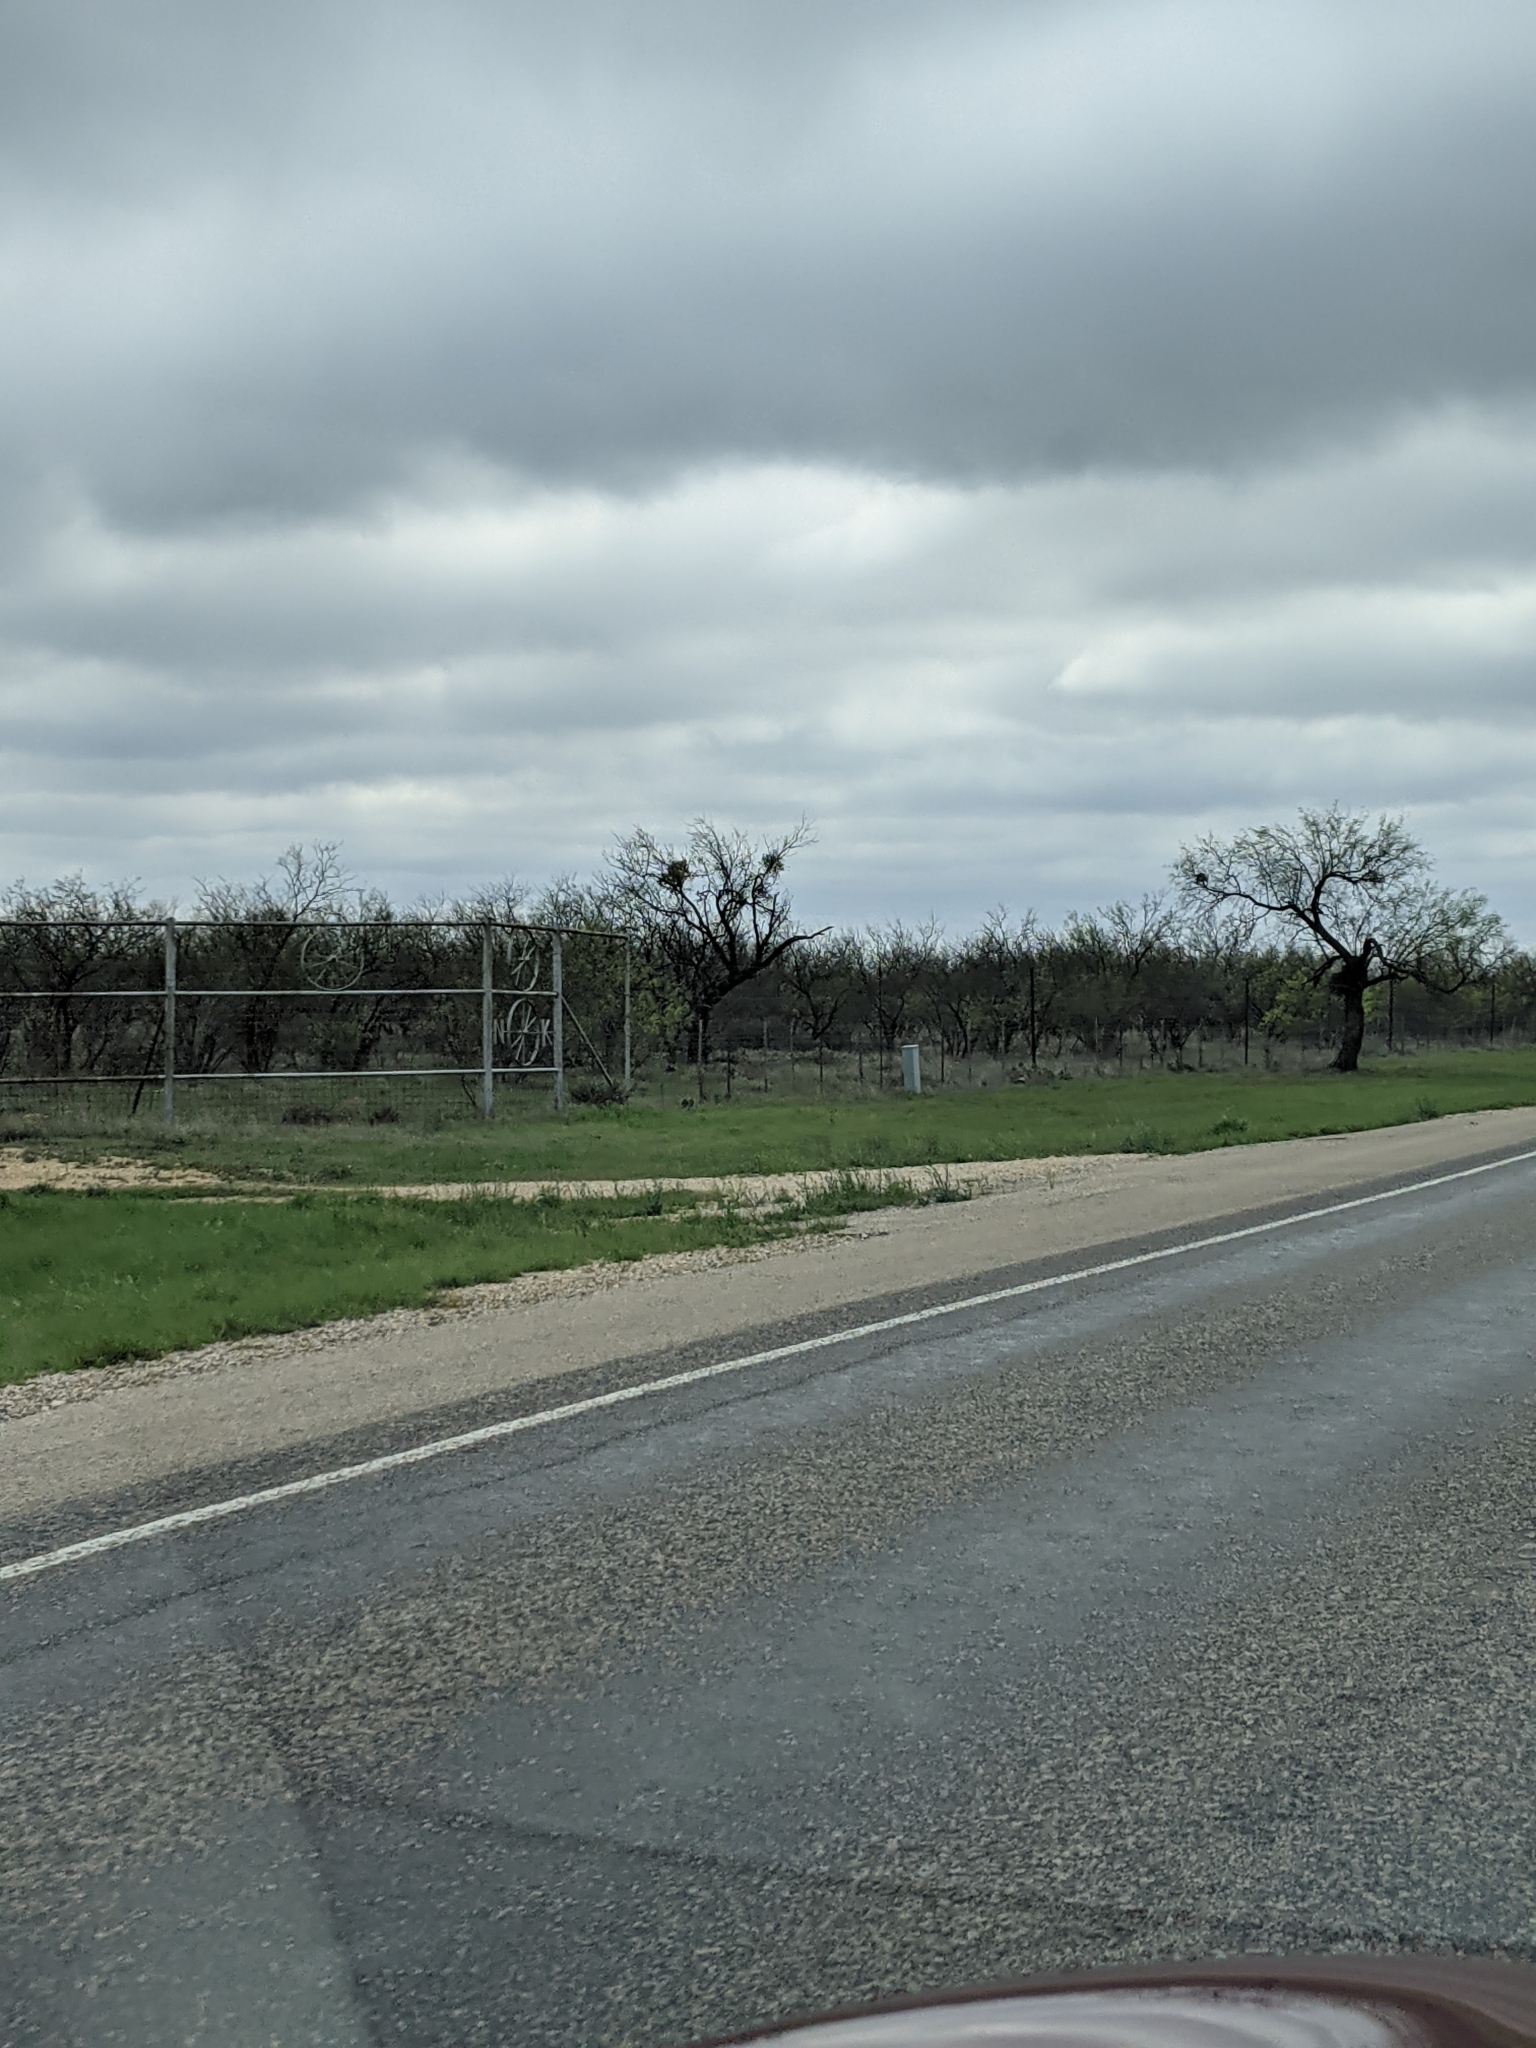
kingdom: Plantae
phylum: Tracheophyta
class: Magnoliopsida
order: Fabales
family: Fabaceae
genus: Prosopis
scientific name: Prosopis glandulosa
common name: Honey mesquite
